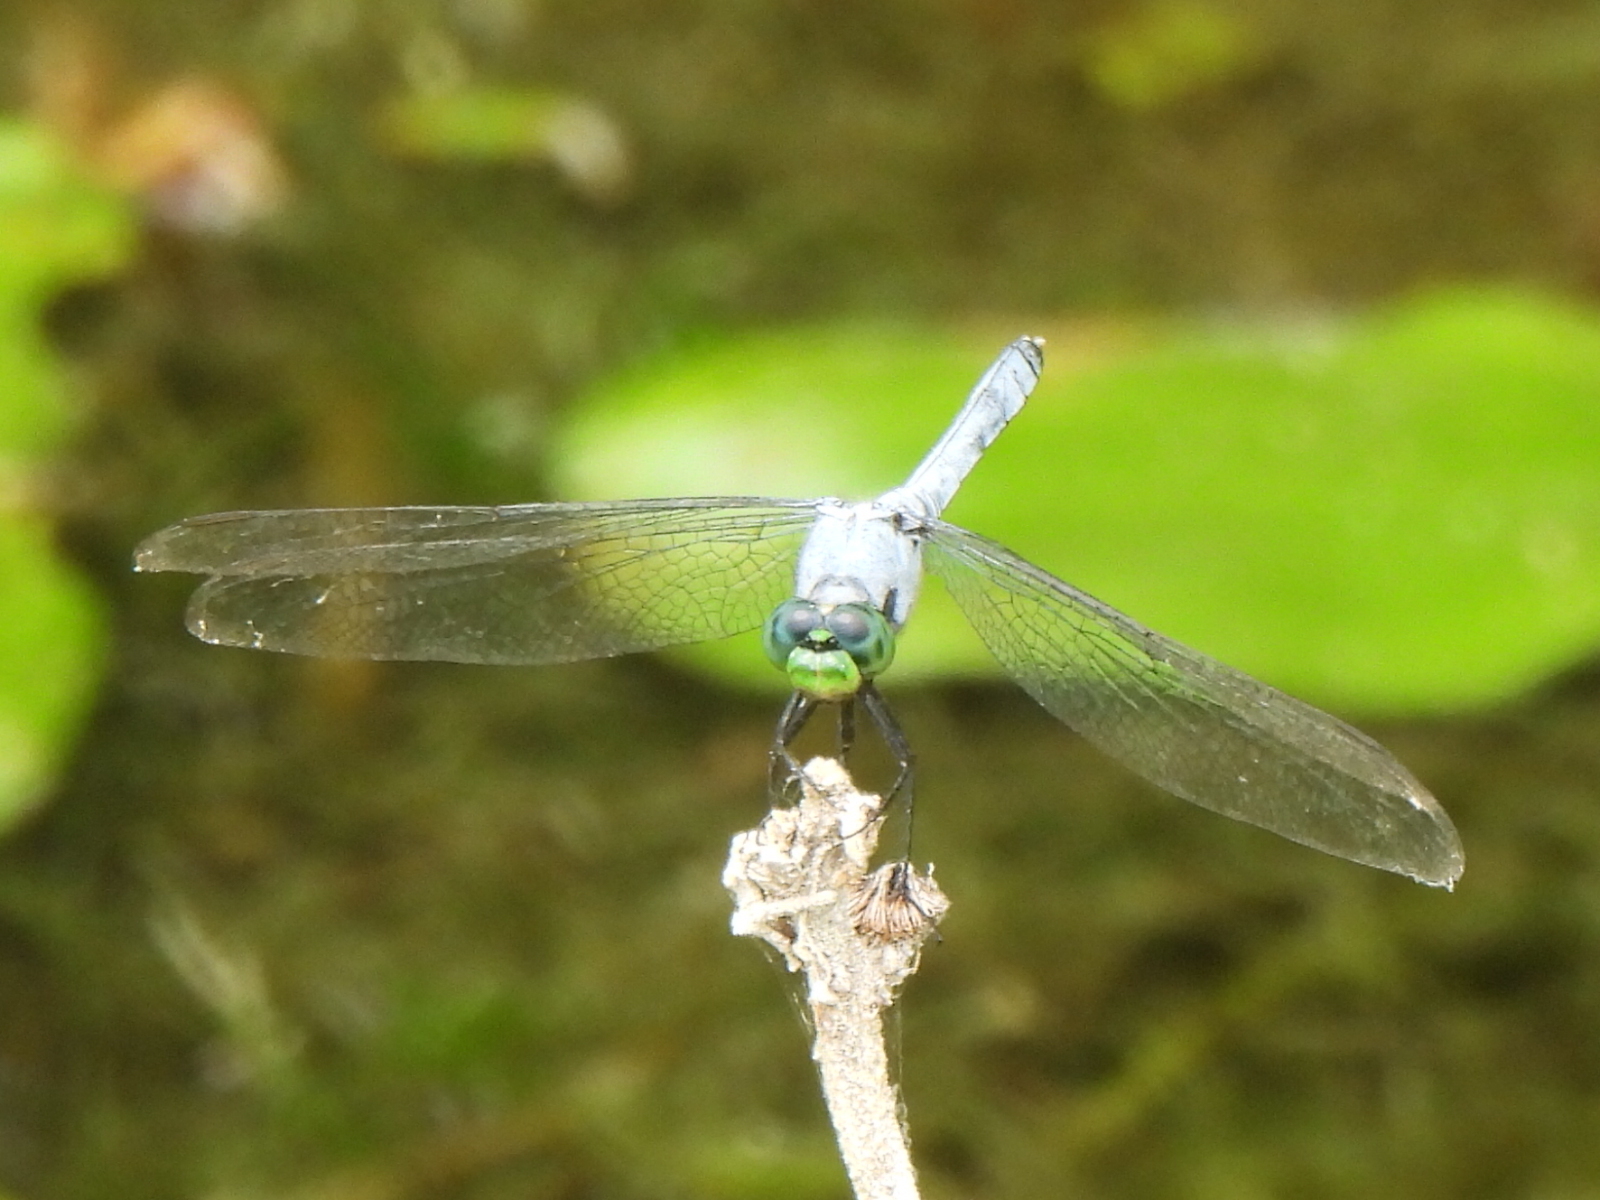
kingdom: Animalia
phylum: Arthropoda
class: Insecta
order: Odonata
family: Libellulidae
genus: Erythemis
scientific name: Erythemis simplicicollis
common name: Eastern pondhawk
